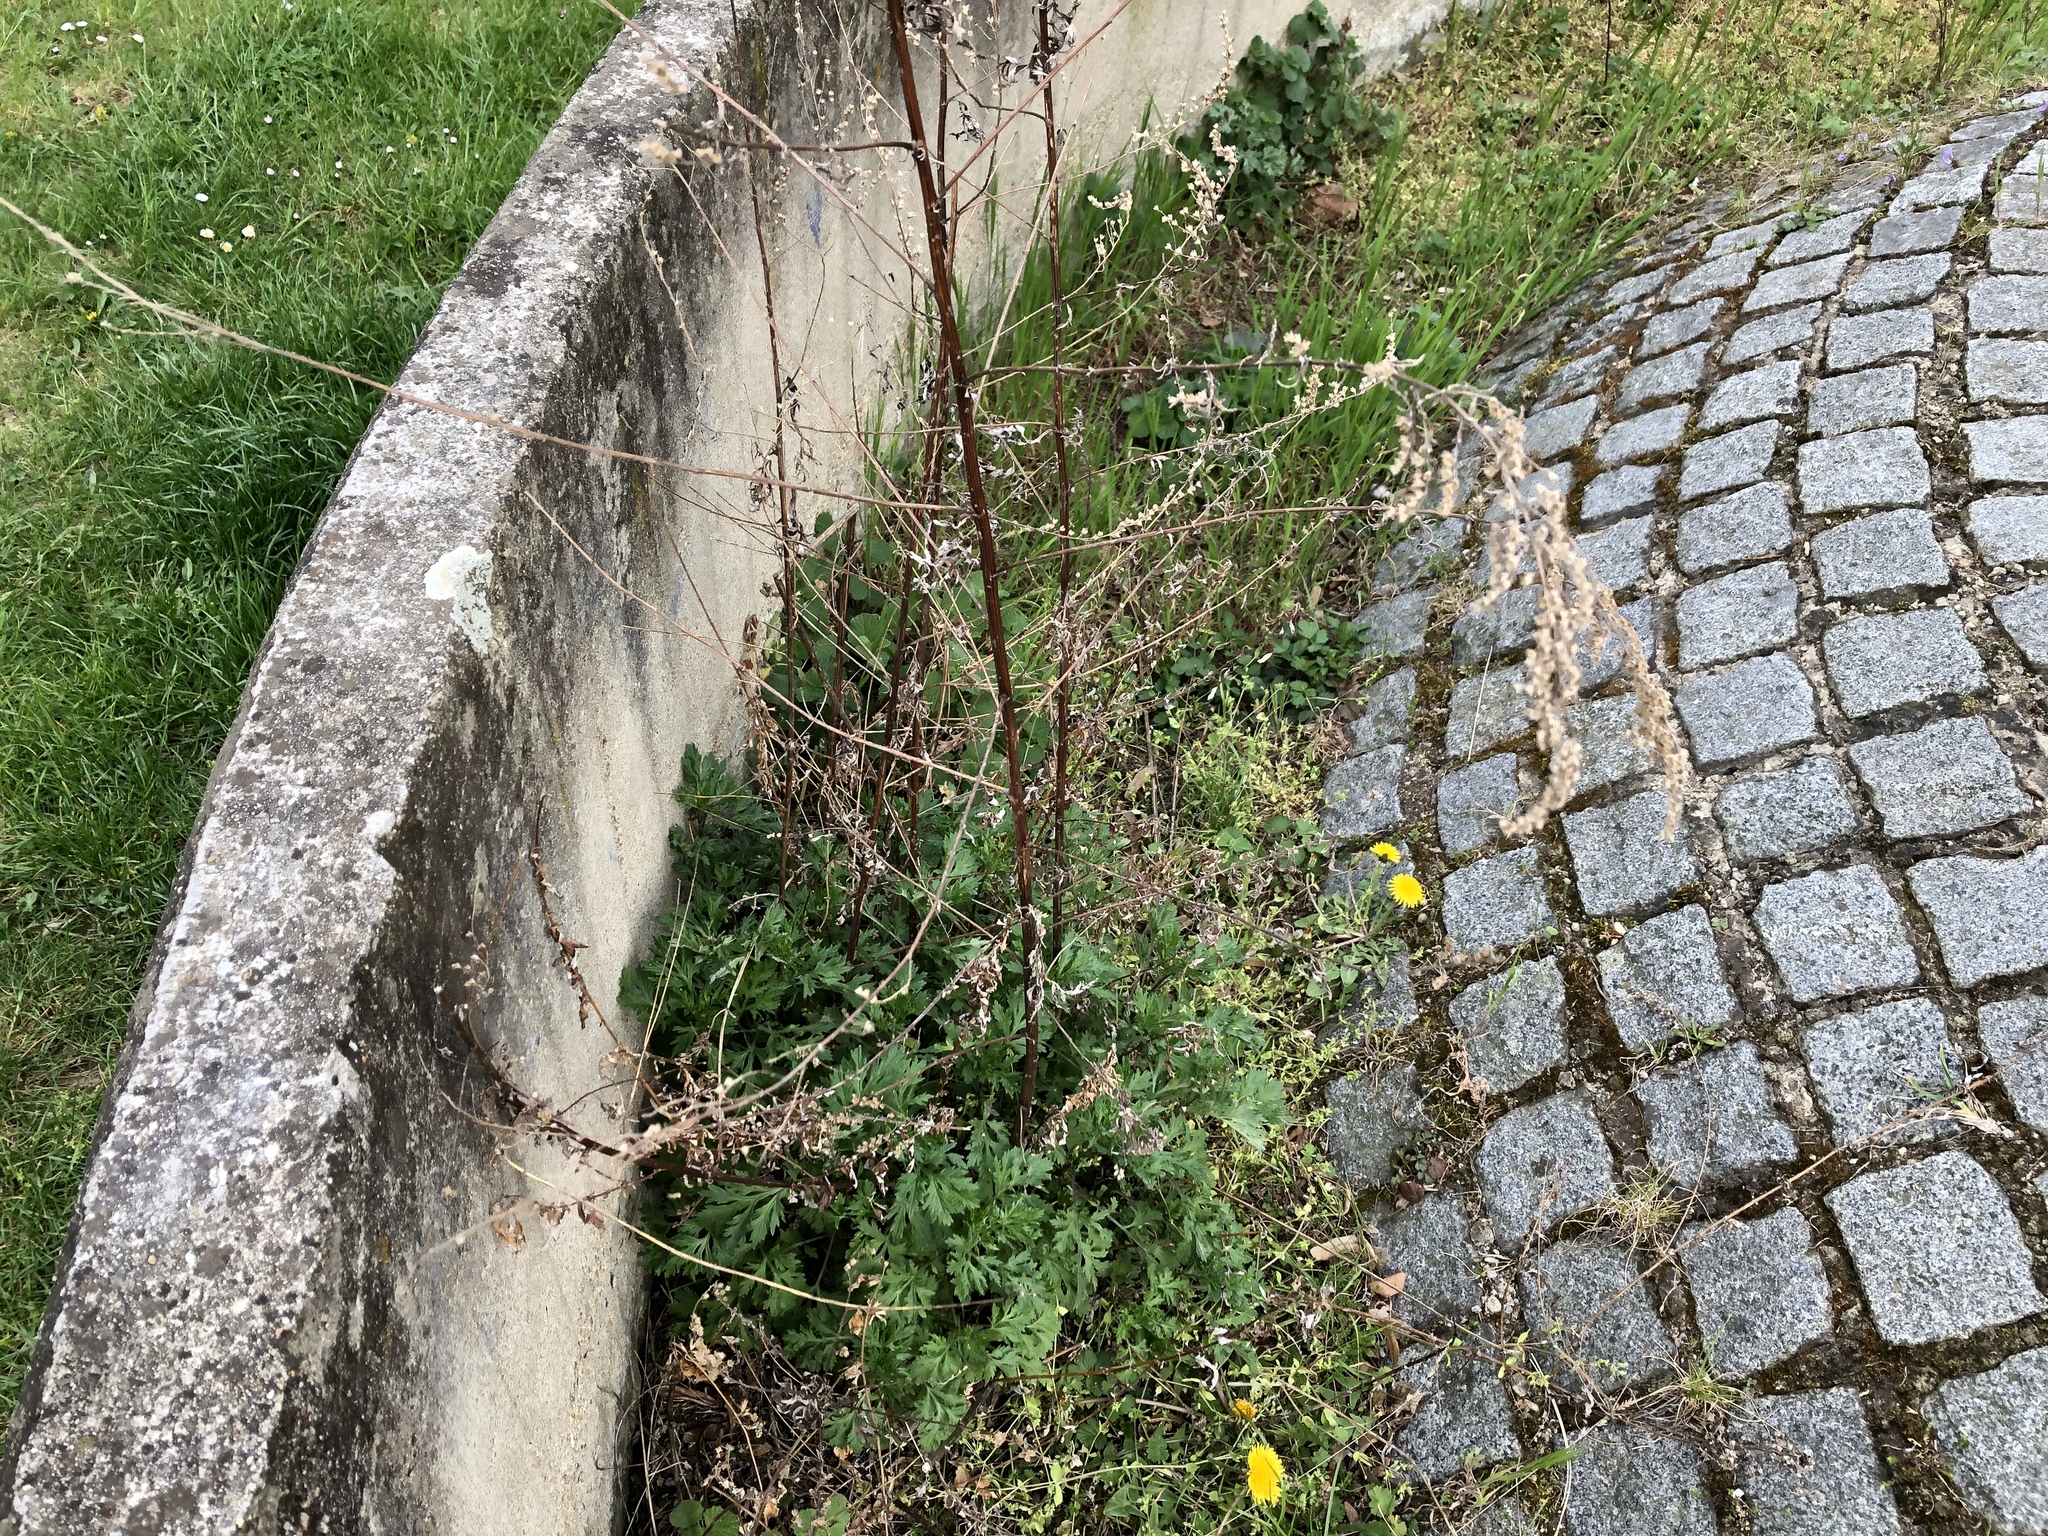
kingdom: Plantae
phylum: Tracheophyta
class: Magnoliopsida
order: Asterales
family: Asteraceae
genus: Artemisia
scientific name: Artemisia vulgaris
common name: Mugwort
